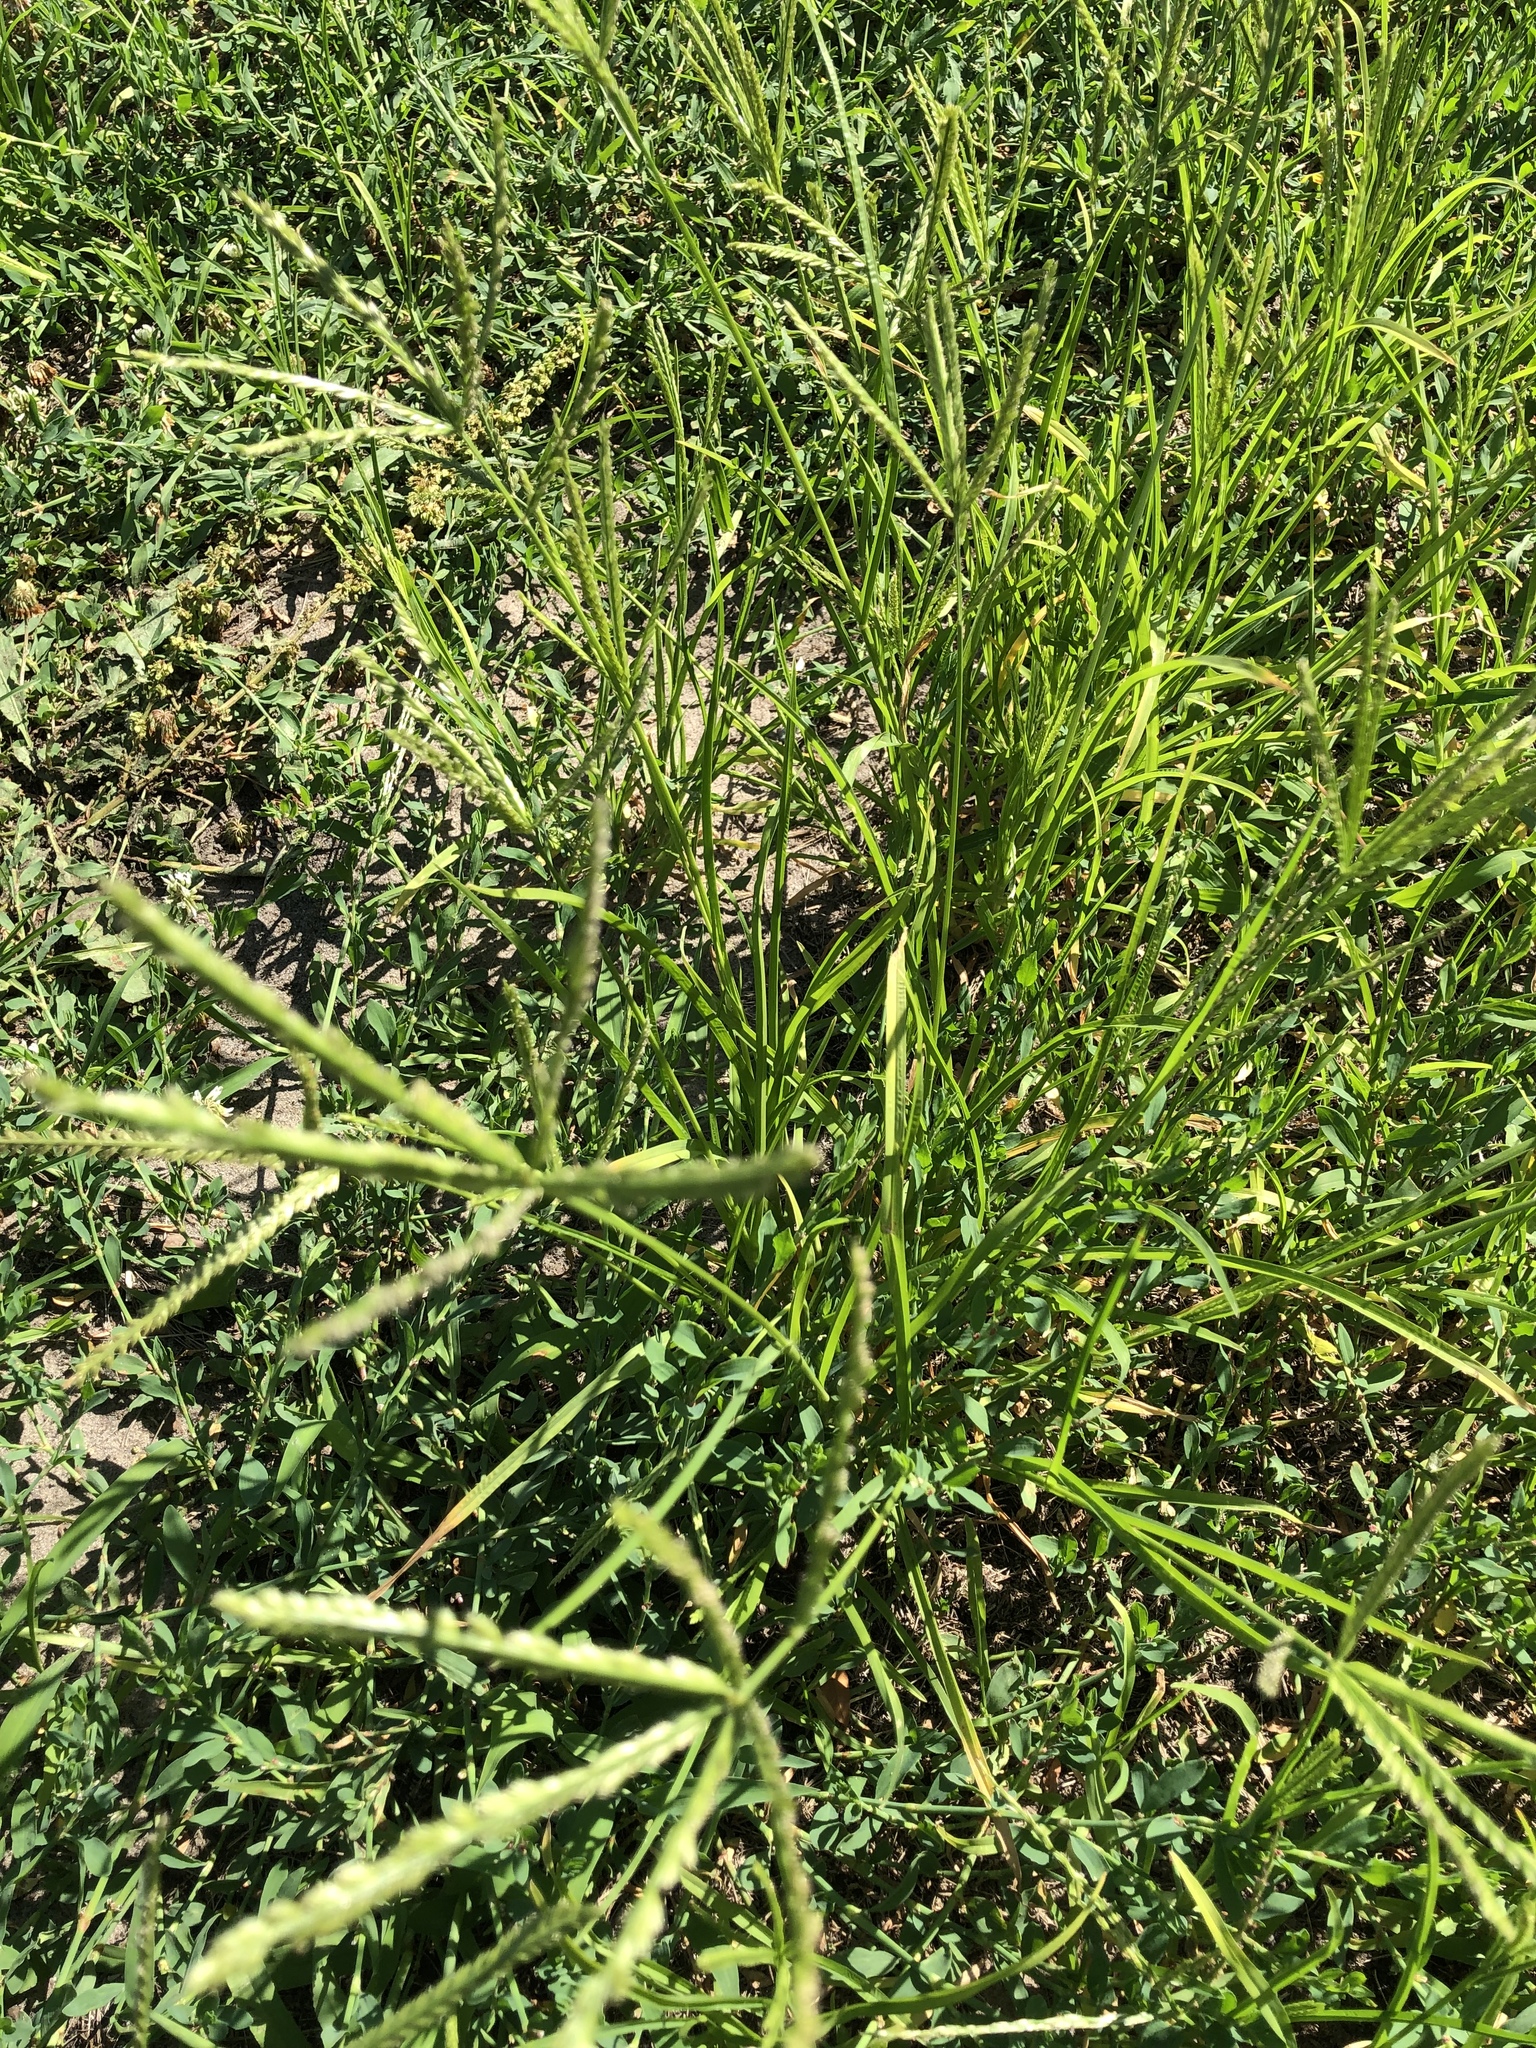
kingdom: Plantae
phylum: Tracheophyta
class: Liliopsida
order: Poales
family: Poaceae
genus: Eleusine
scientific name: Eleusine indica
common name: Yard-grass
